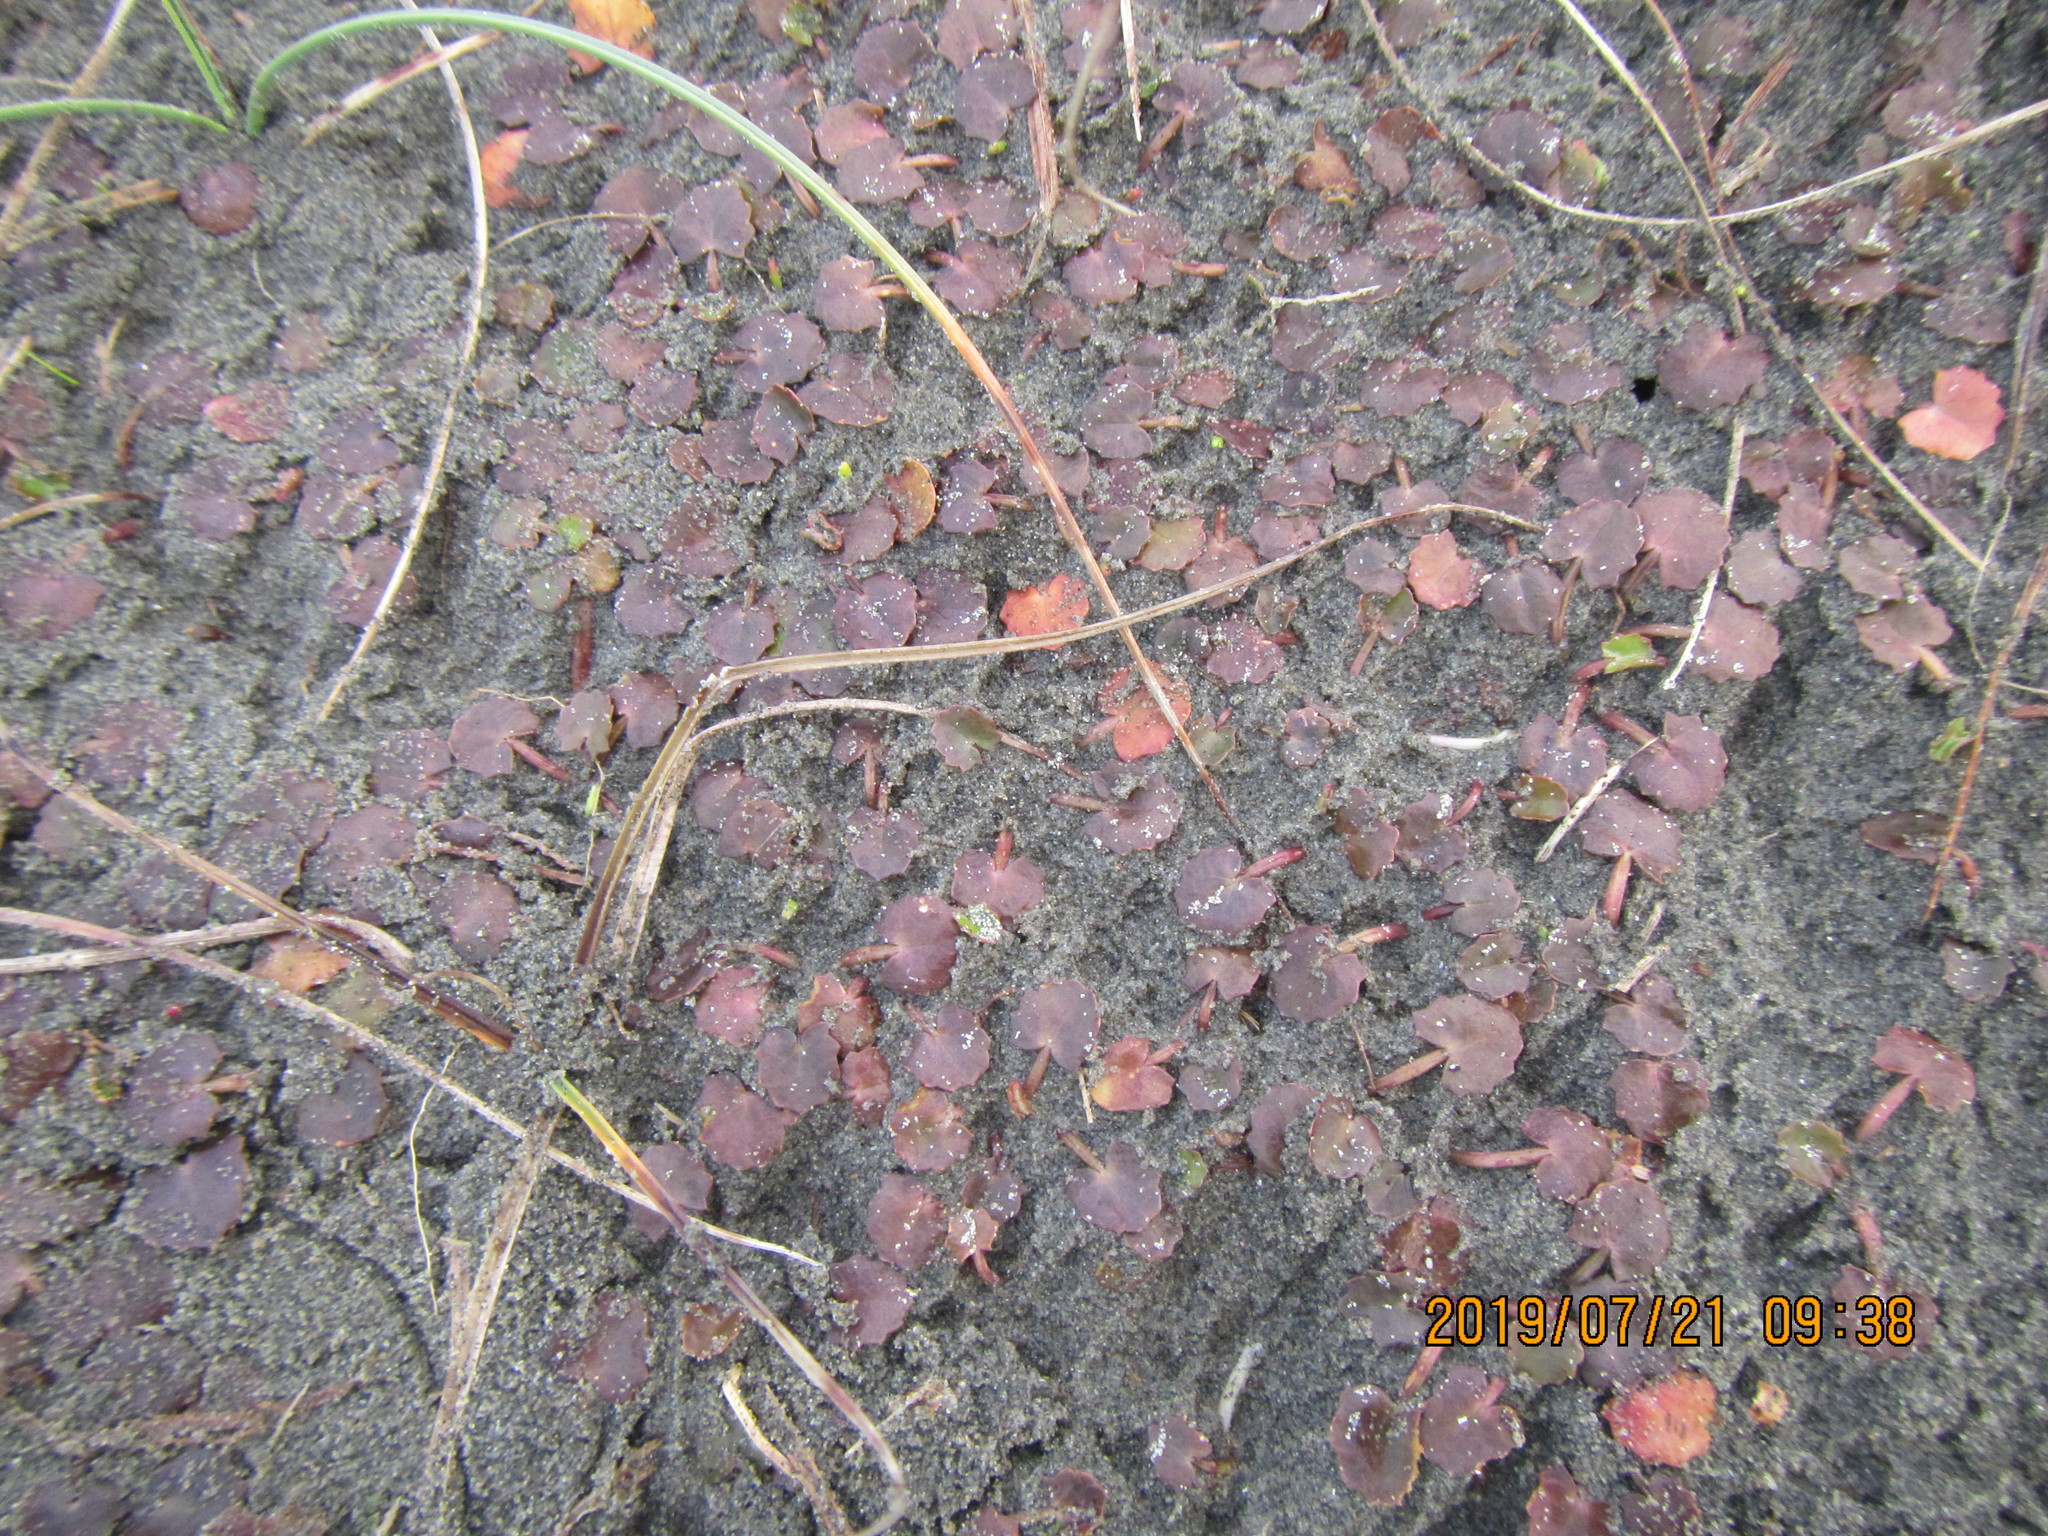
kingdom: Plantae
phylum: Tracheophyta
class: Magnoliopsida
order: Apiales
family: Apiaceae
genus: Centella
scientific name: Centella uniflora
